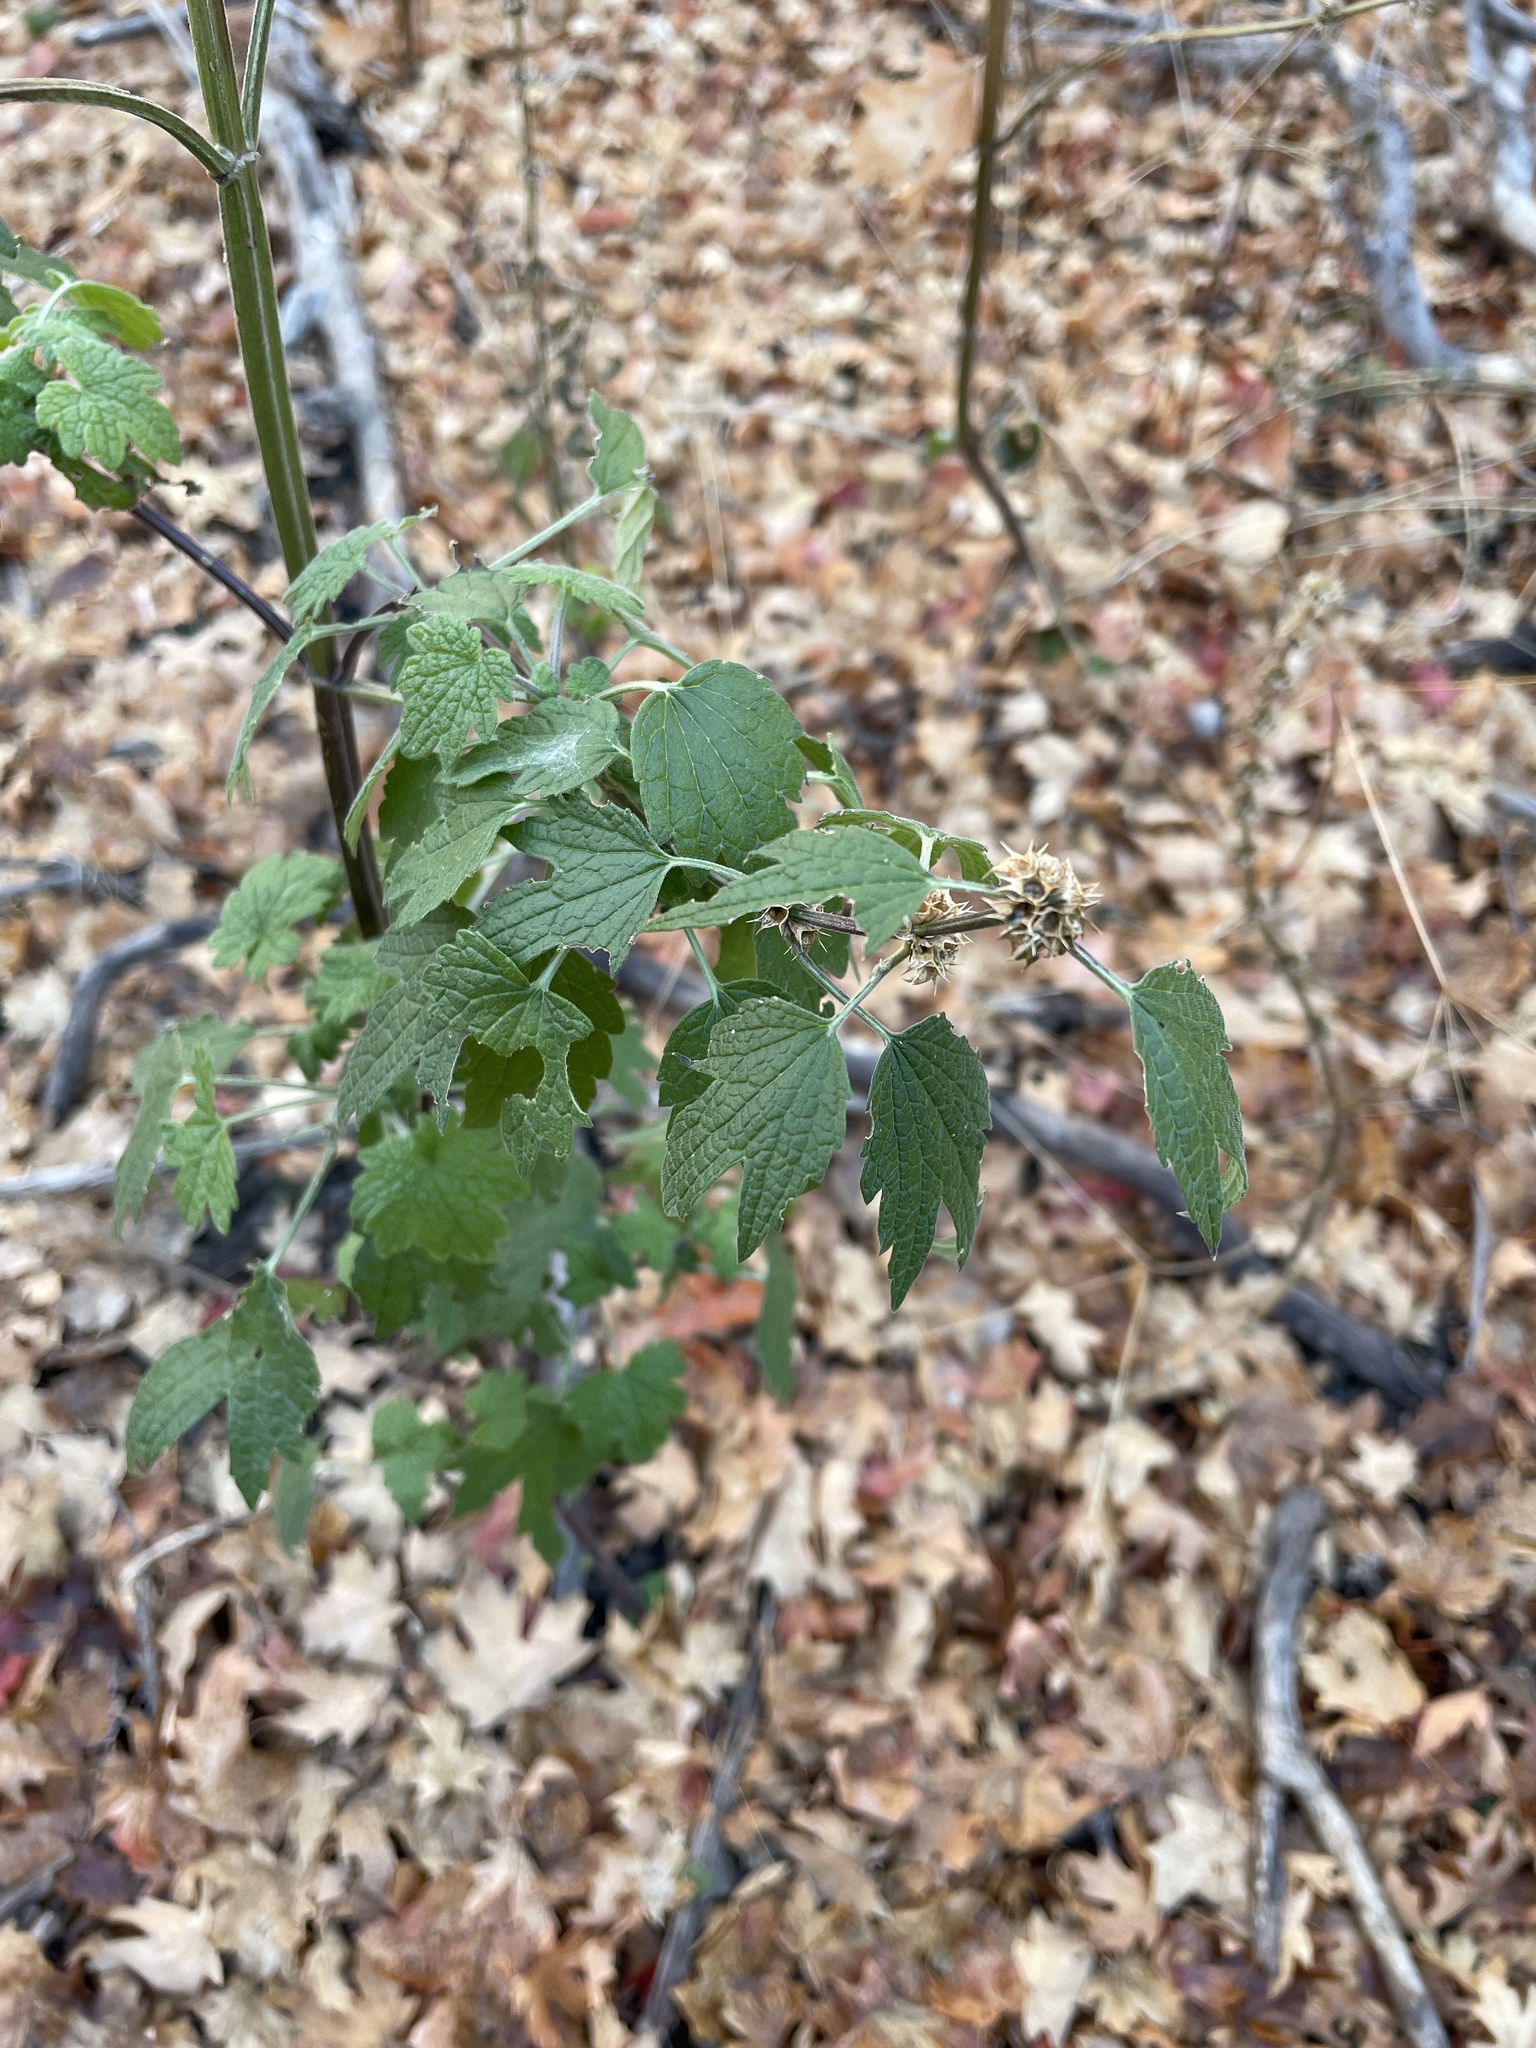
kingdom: Plantae
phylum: Tracheophyta
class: Magnoliopsida
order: Lamiales
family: Lamiaceae
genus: Leonurus
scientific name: Leonurus cardiaca
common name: Motherwort
